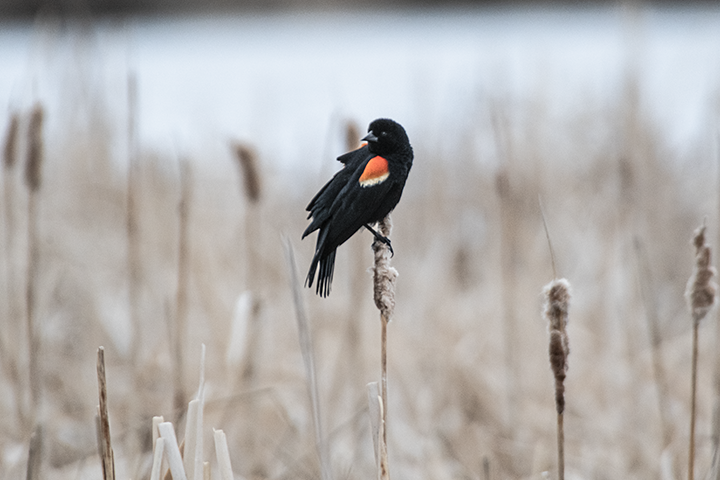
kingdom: Animalia
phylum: Chordata
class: Aves
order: Passeriformes
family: Icteridae
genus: Agelaius
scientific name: Agelaius phoeniceus
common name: Red-winged blackbird
